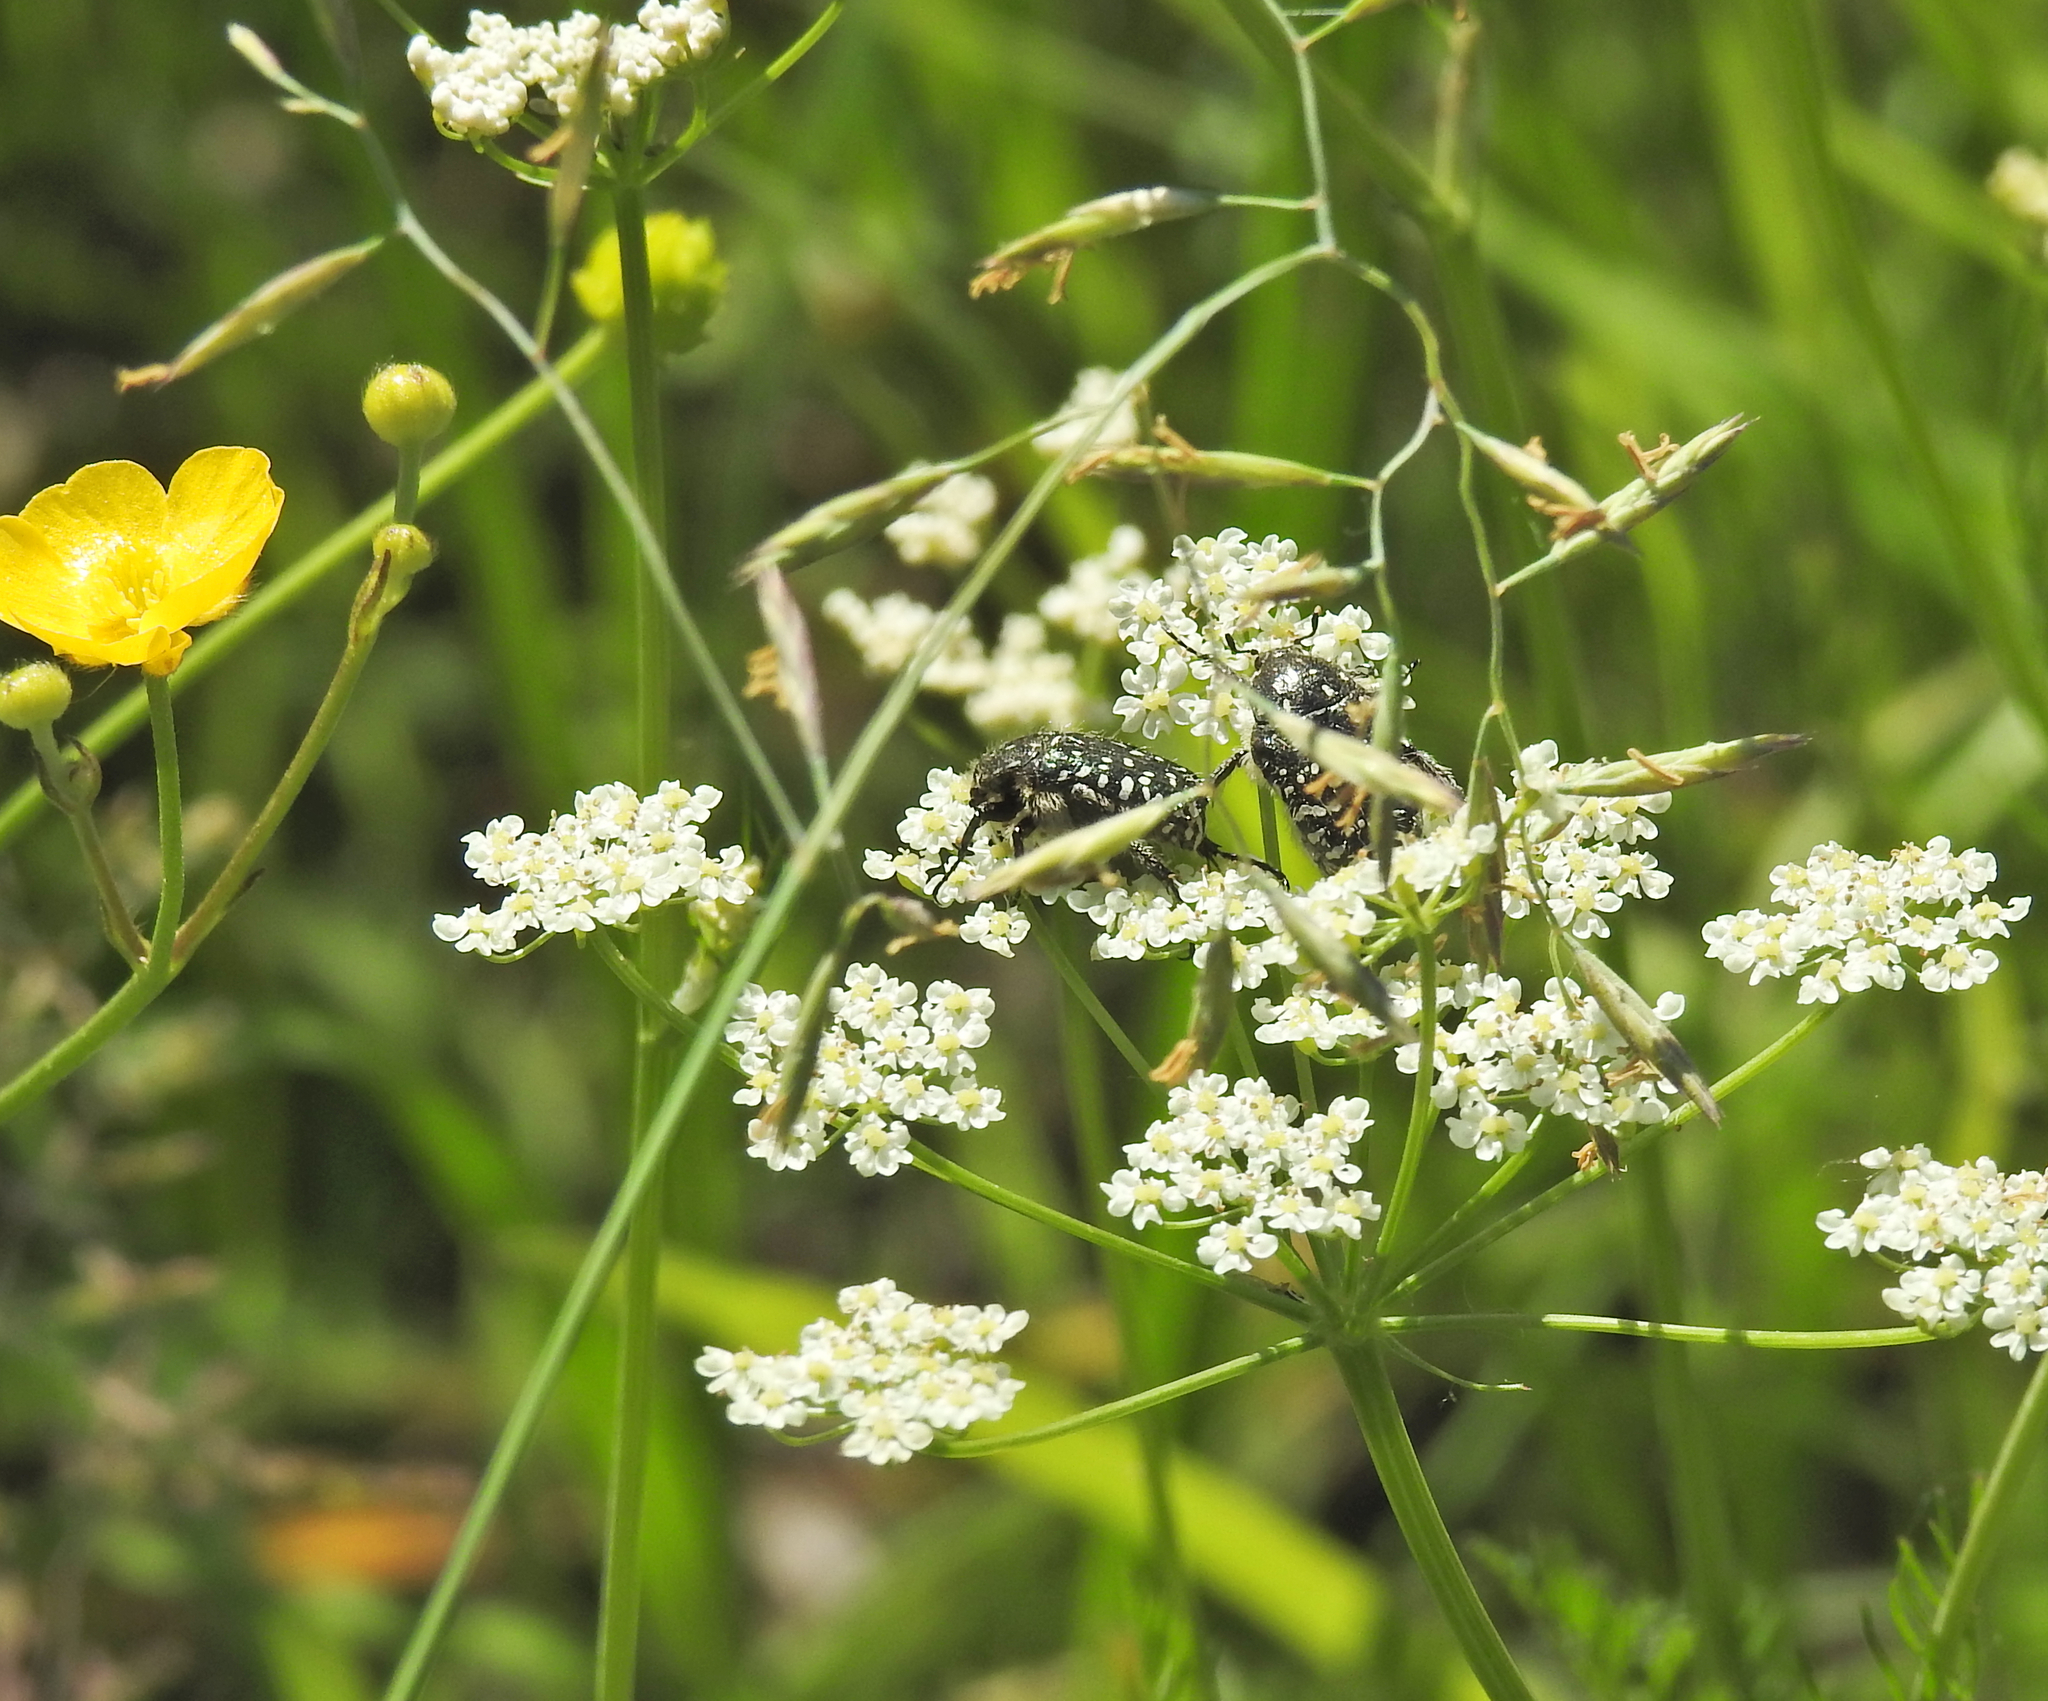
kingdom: Animalia
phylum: Arthropoda
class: Insecta
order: Coleoptera
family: Scarabaeidae
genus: Oxythyrea
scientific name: Oxythyrea funesta
